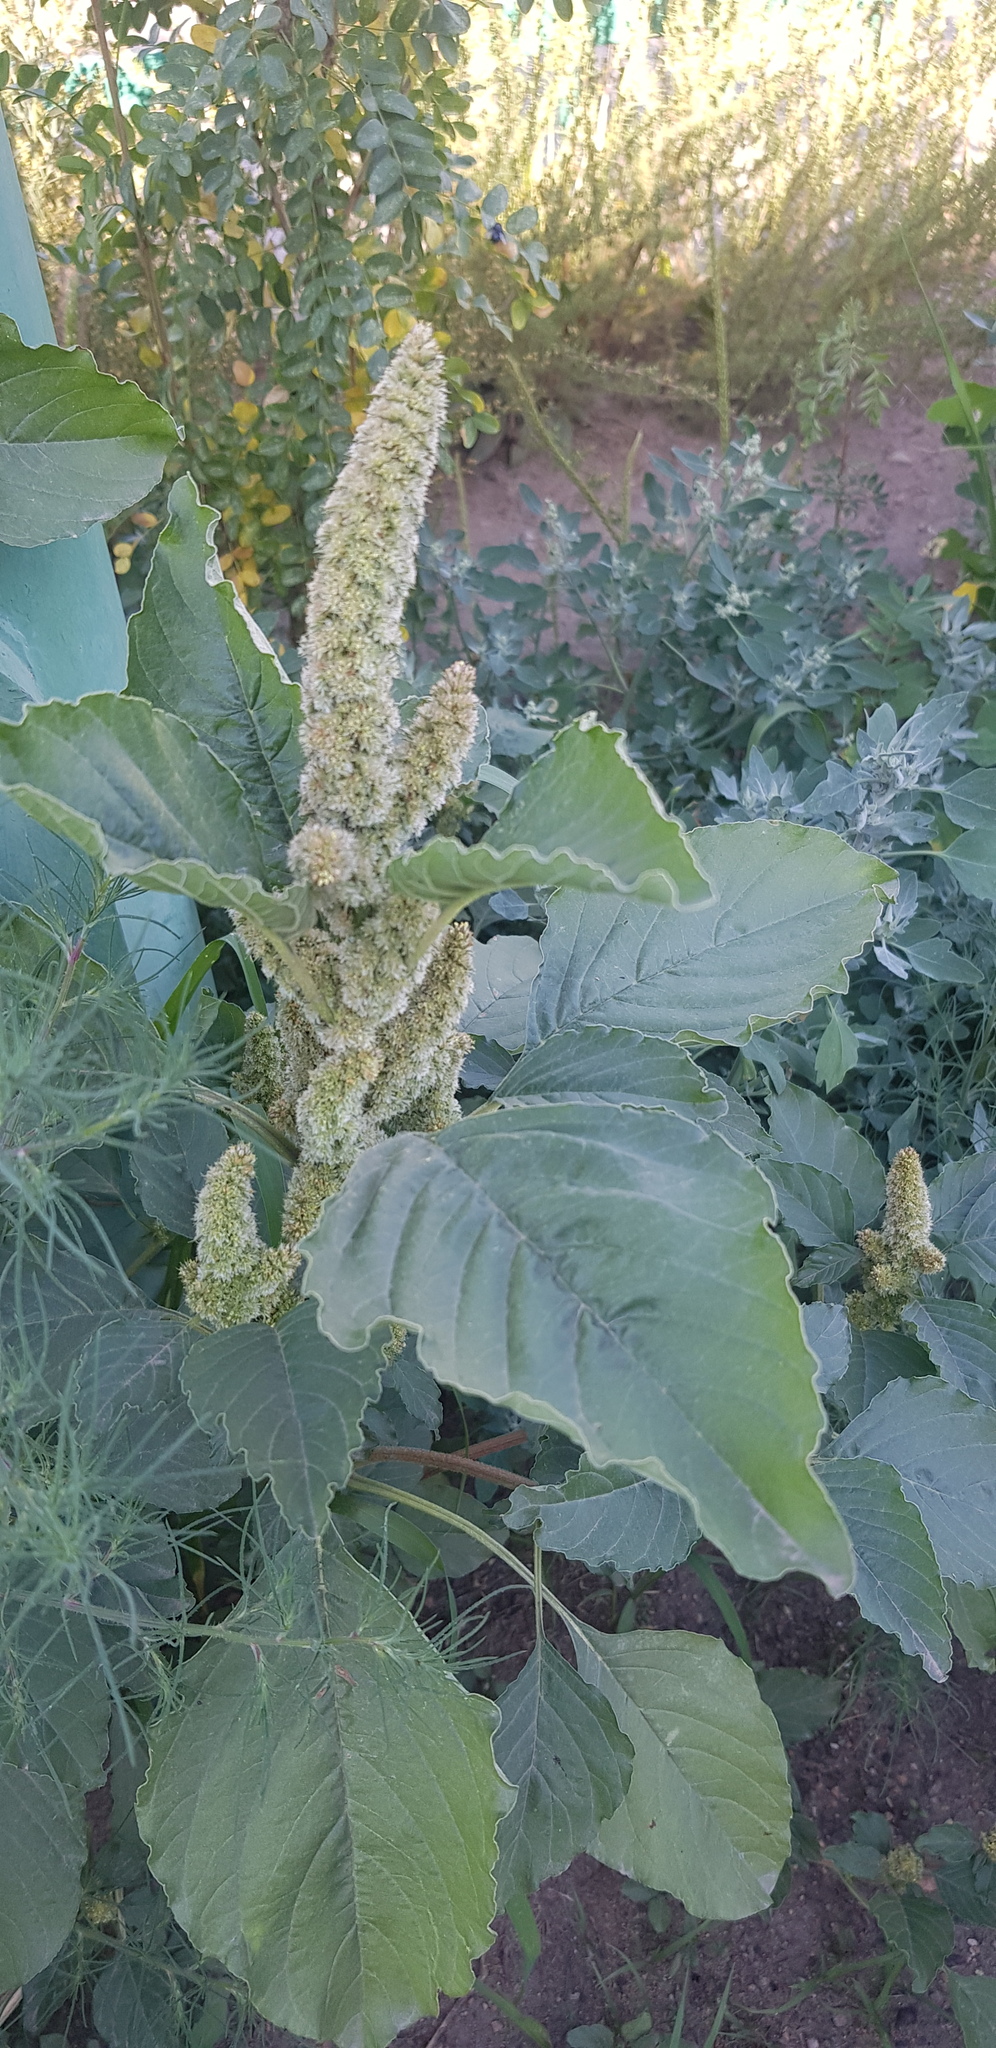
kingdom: Plantae
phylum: Tracheophyta
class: Magnoliopsida
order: Caryophyllales
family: Amaranthaceae
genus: Amaranthus
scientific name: Amaranthus retroflexus
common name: Redroot amaranth
